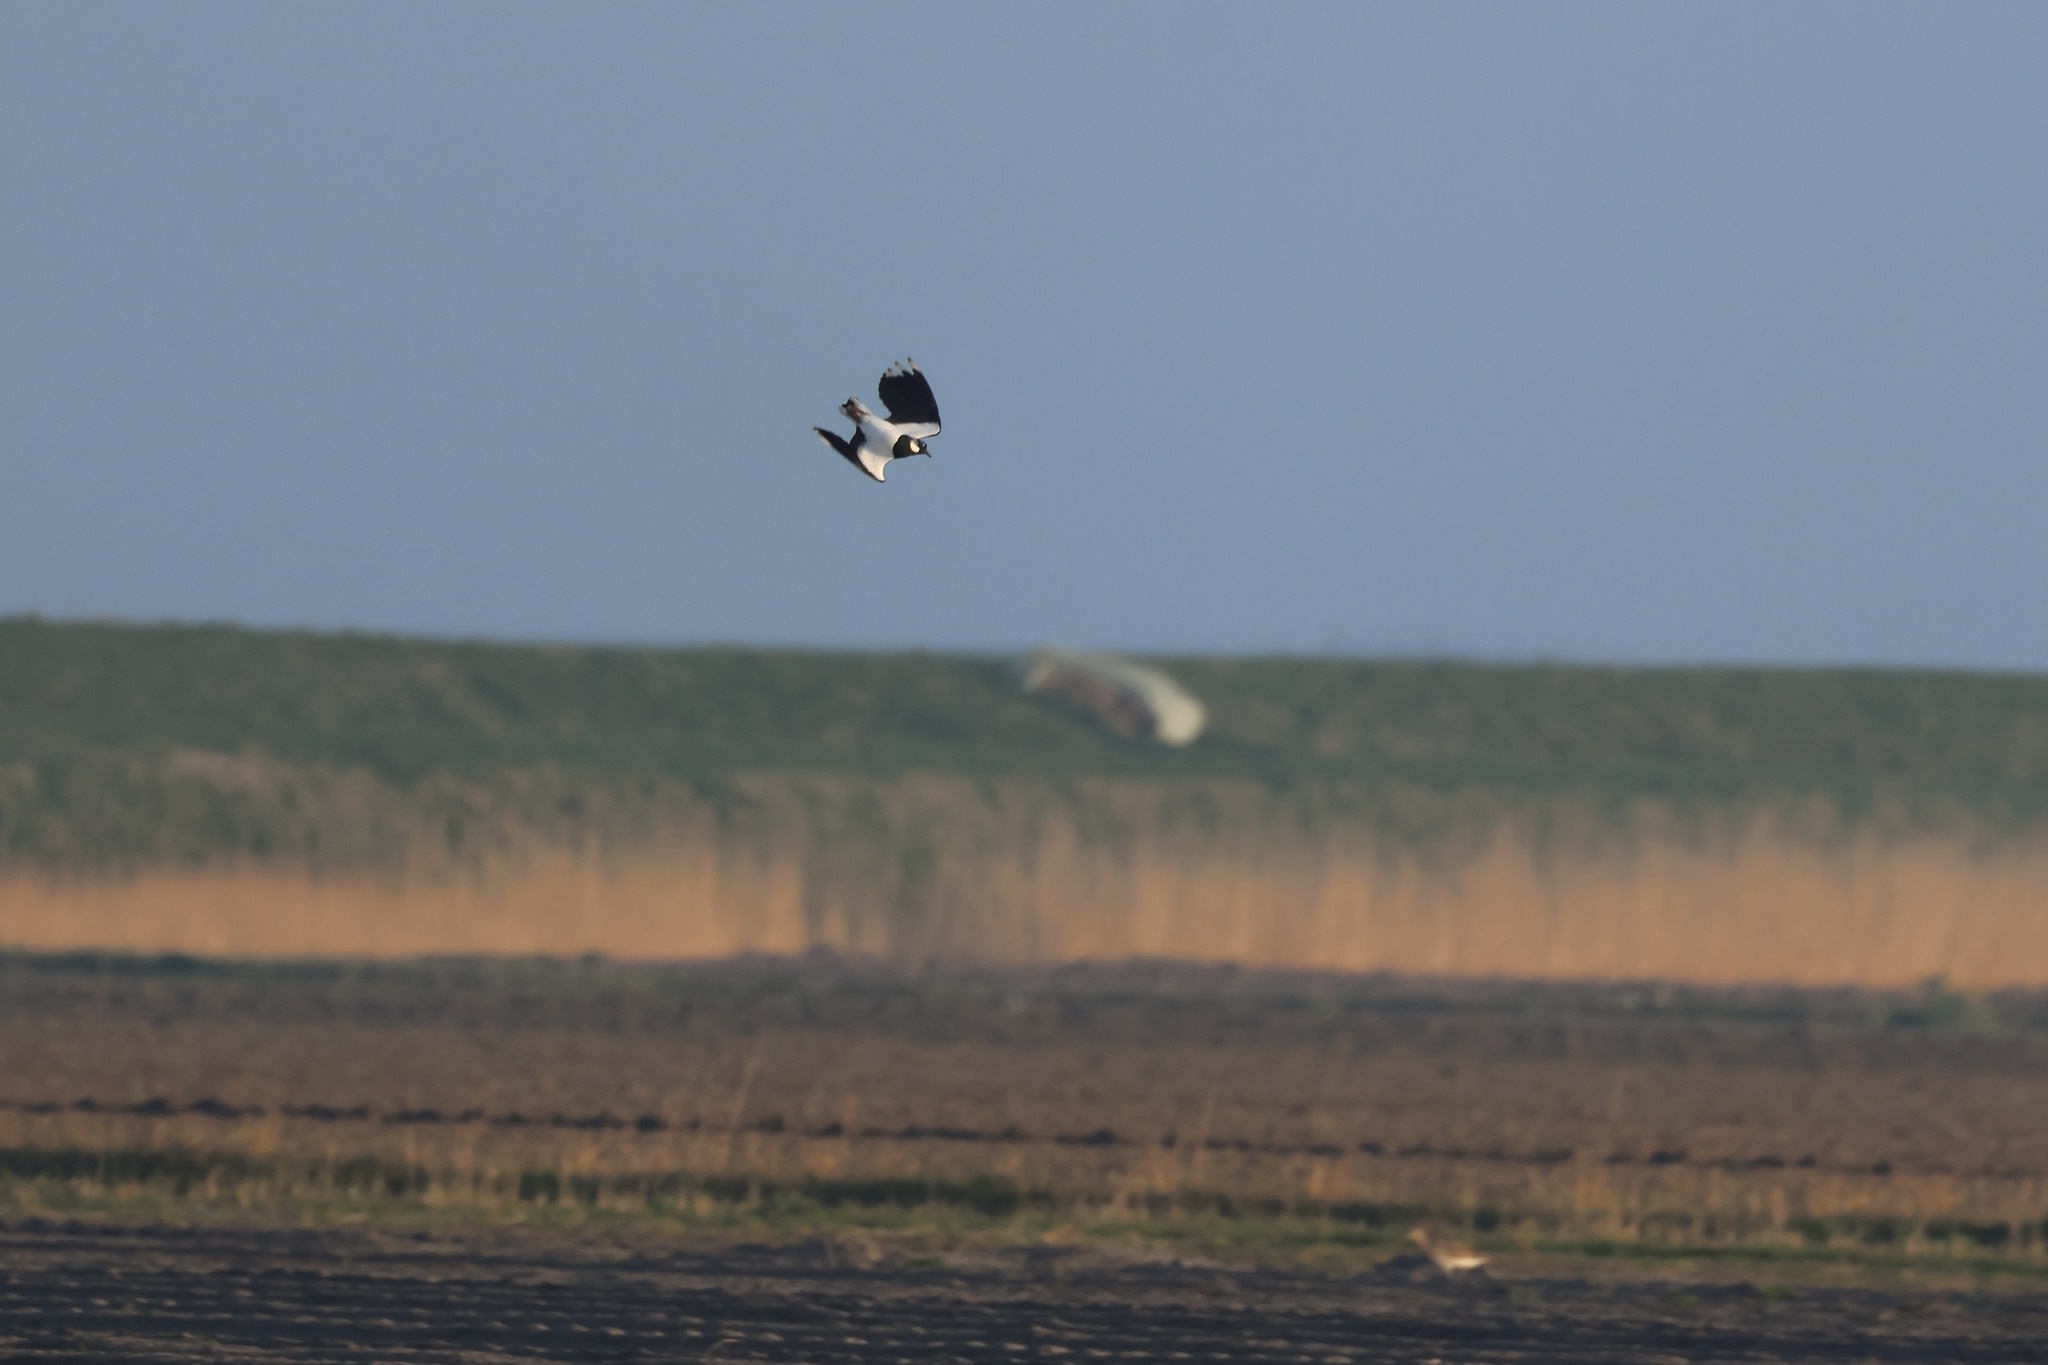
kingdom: Animalia
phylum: Chordata
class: Aves
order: Charadriiformes
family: Charadriidae
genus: Vanellus
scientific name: Vanellus vanellus
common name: Northern lapwing
